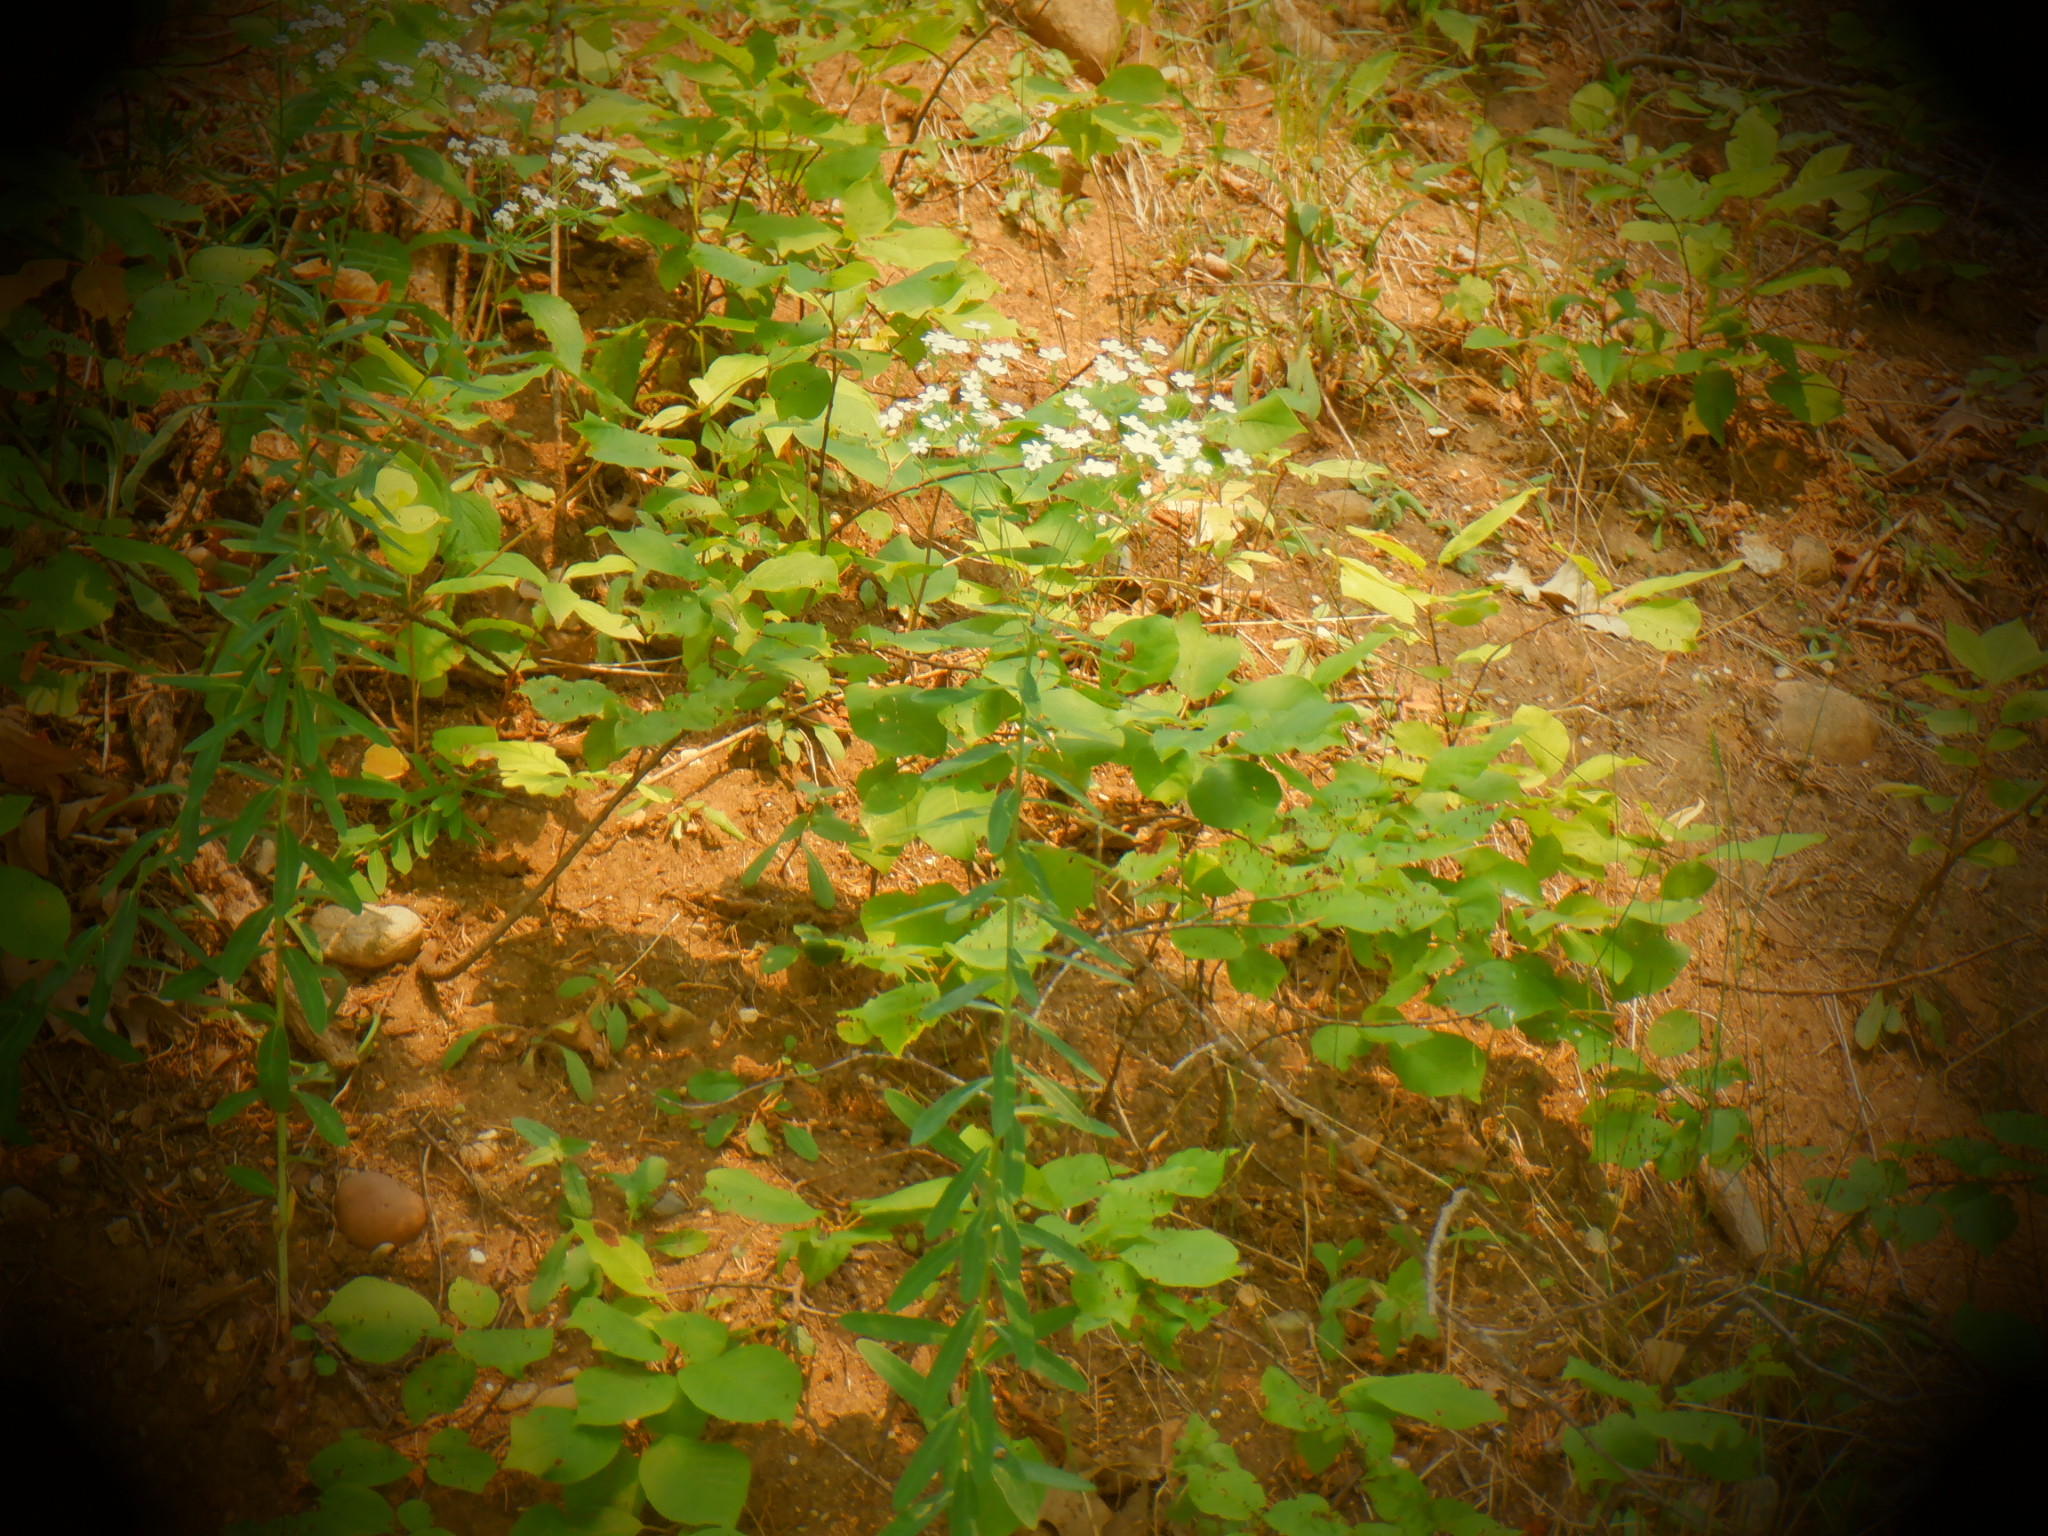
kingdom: Plantae
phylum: Tracheophyta
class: Magnoliopsida
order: Malpighiales
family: Euphorbiaceae
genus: Euphorbia
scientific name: Euphorbia corollata
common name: Flowering spurge
